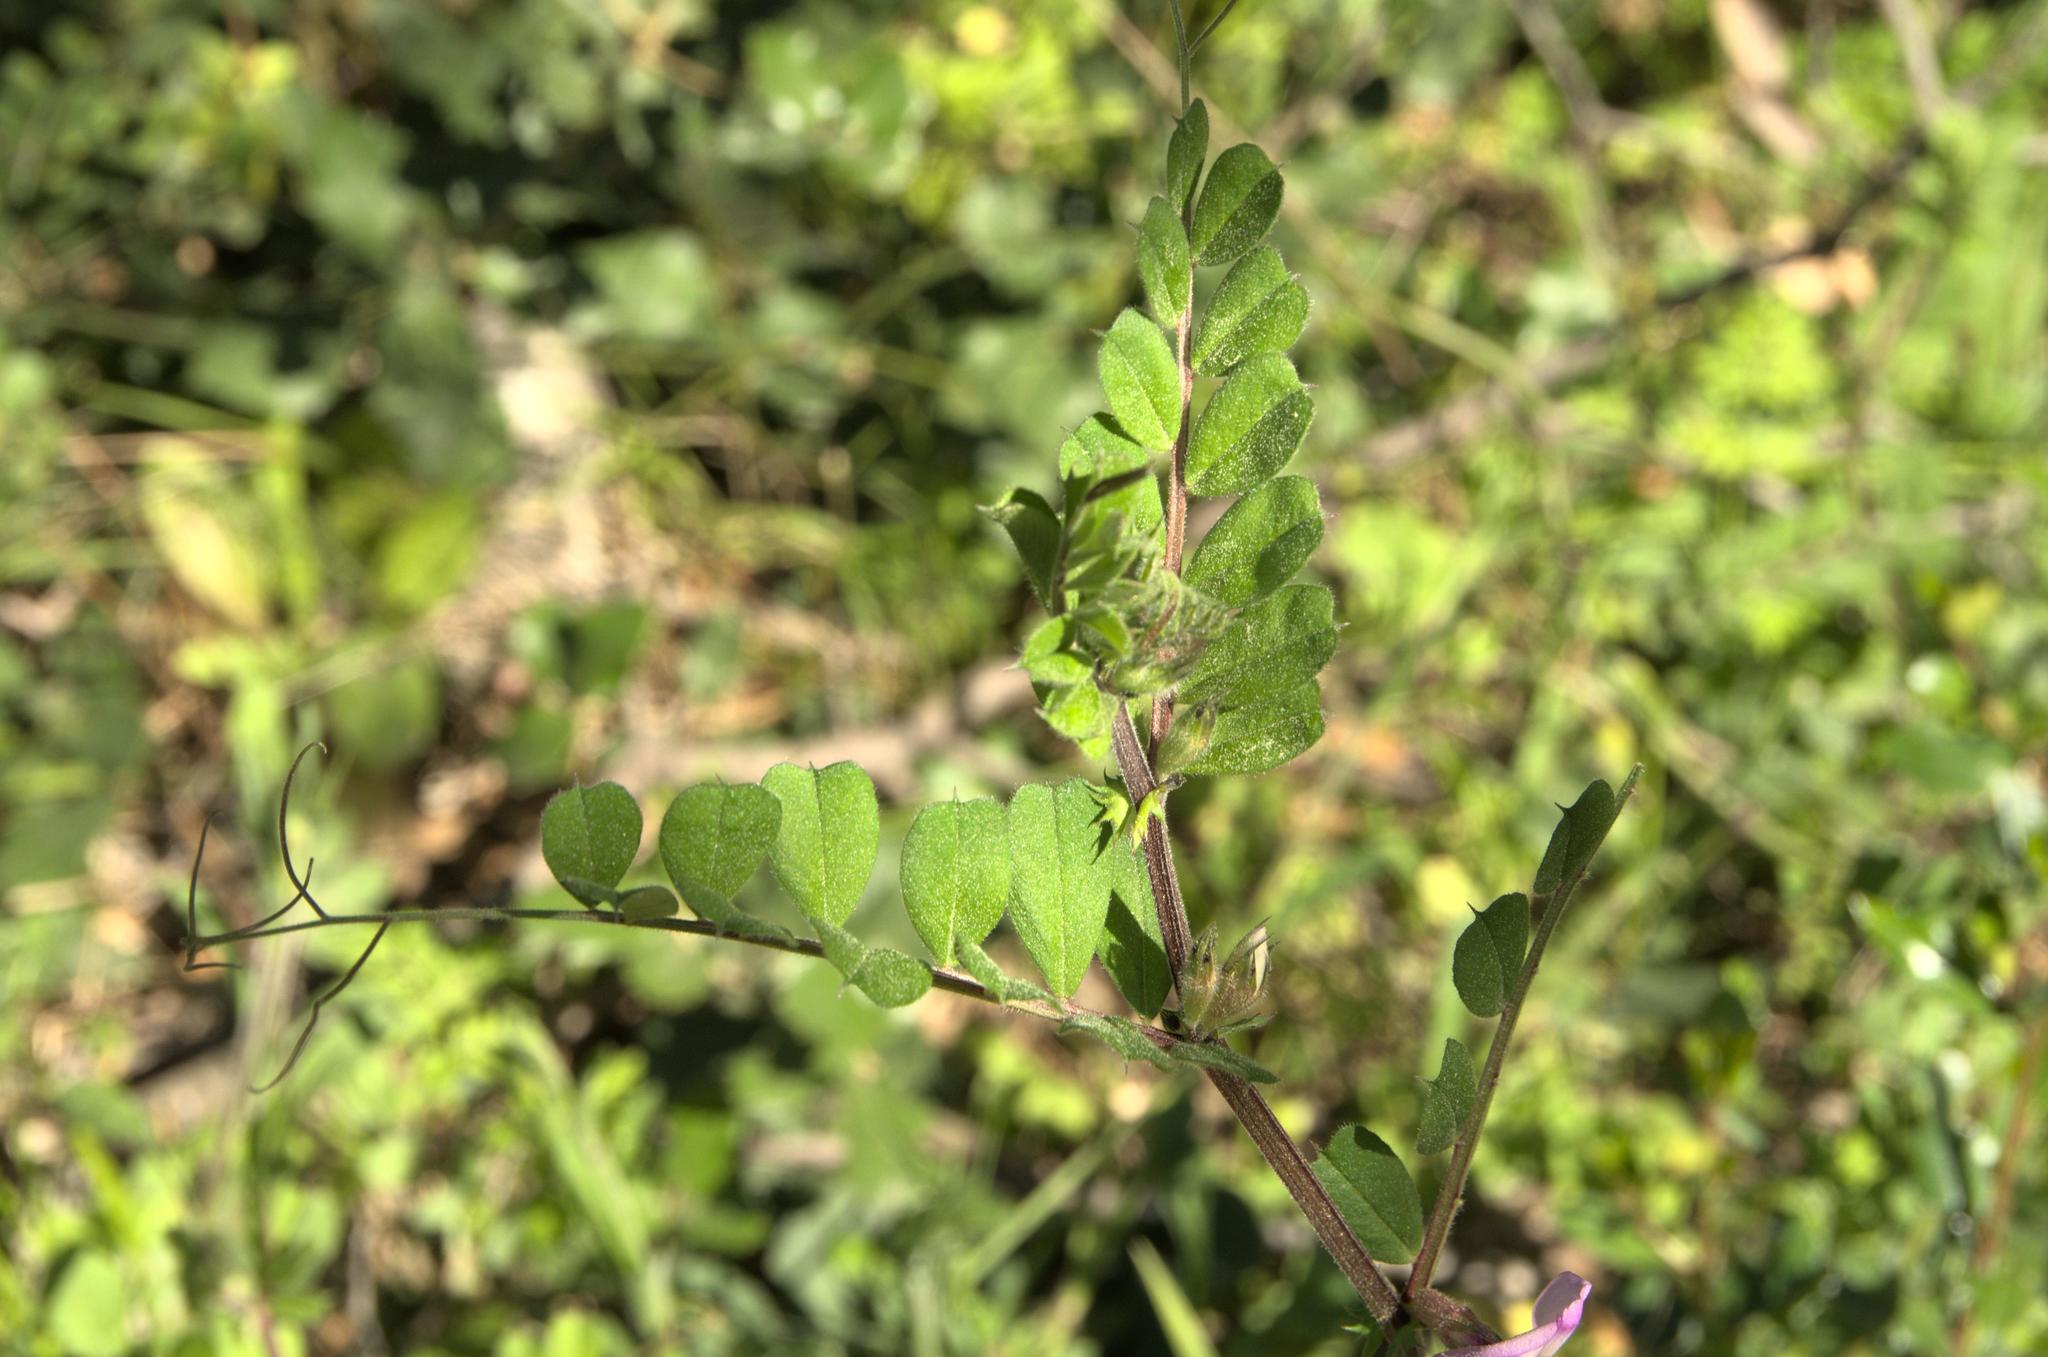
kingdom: Plantae
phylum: Tracheophyta
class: Magnoliopsida
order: Fabales
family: Fabaceae
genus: Vicia
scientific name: Vicia sativa
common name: Garden vetch
